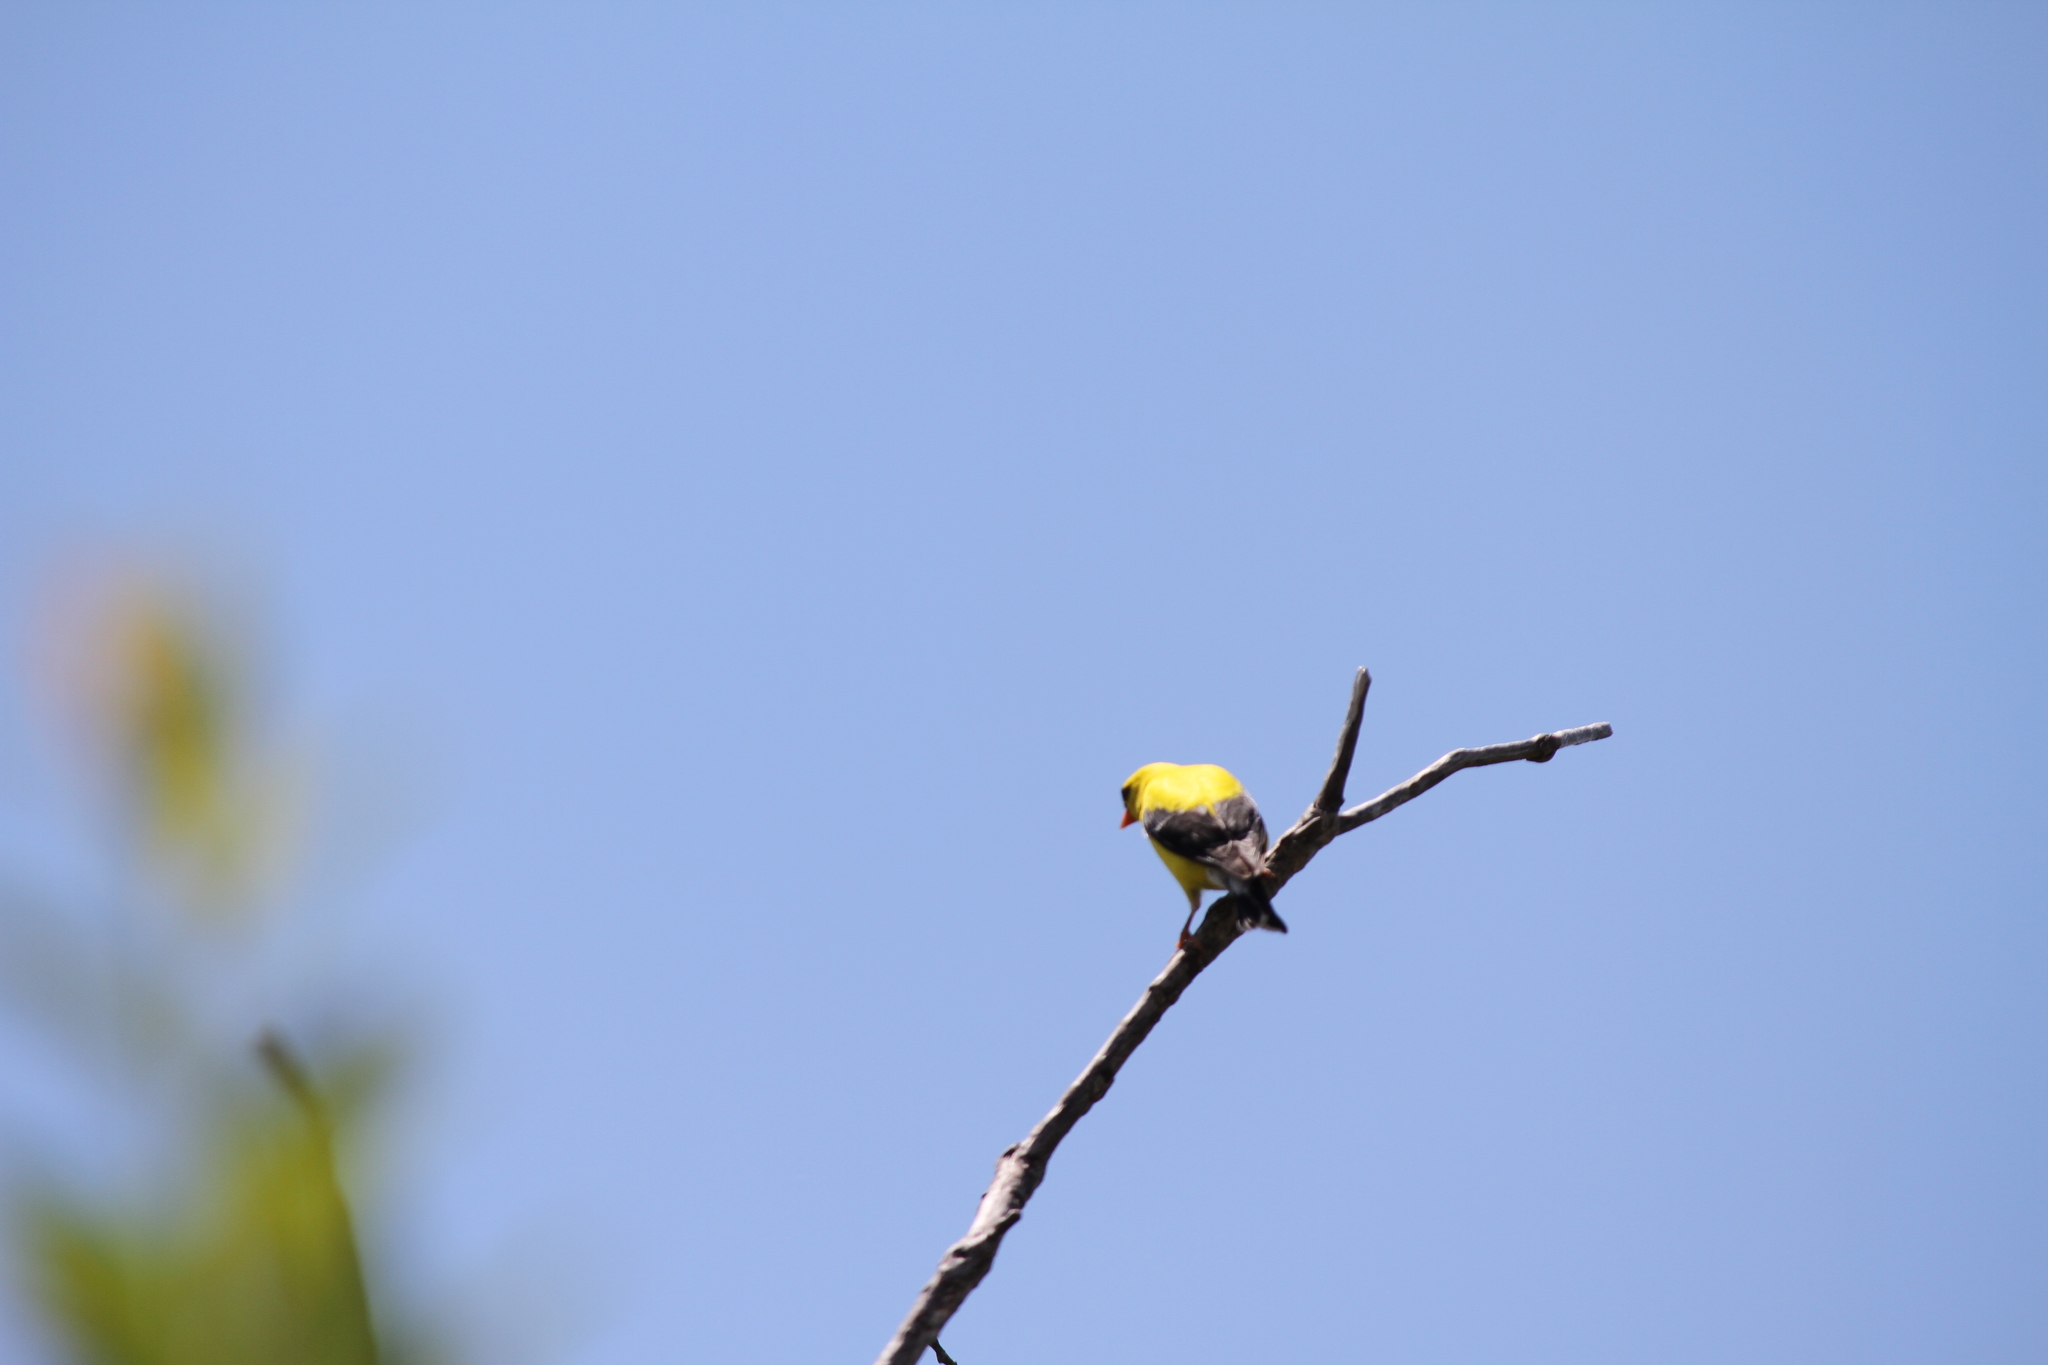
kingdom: Animalia
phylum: Chordata
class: Aves
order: Passeriformes
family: Fringillidae
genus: Spinus
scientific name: Spinus tristis
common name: American goldfinch
